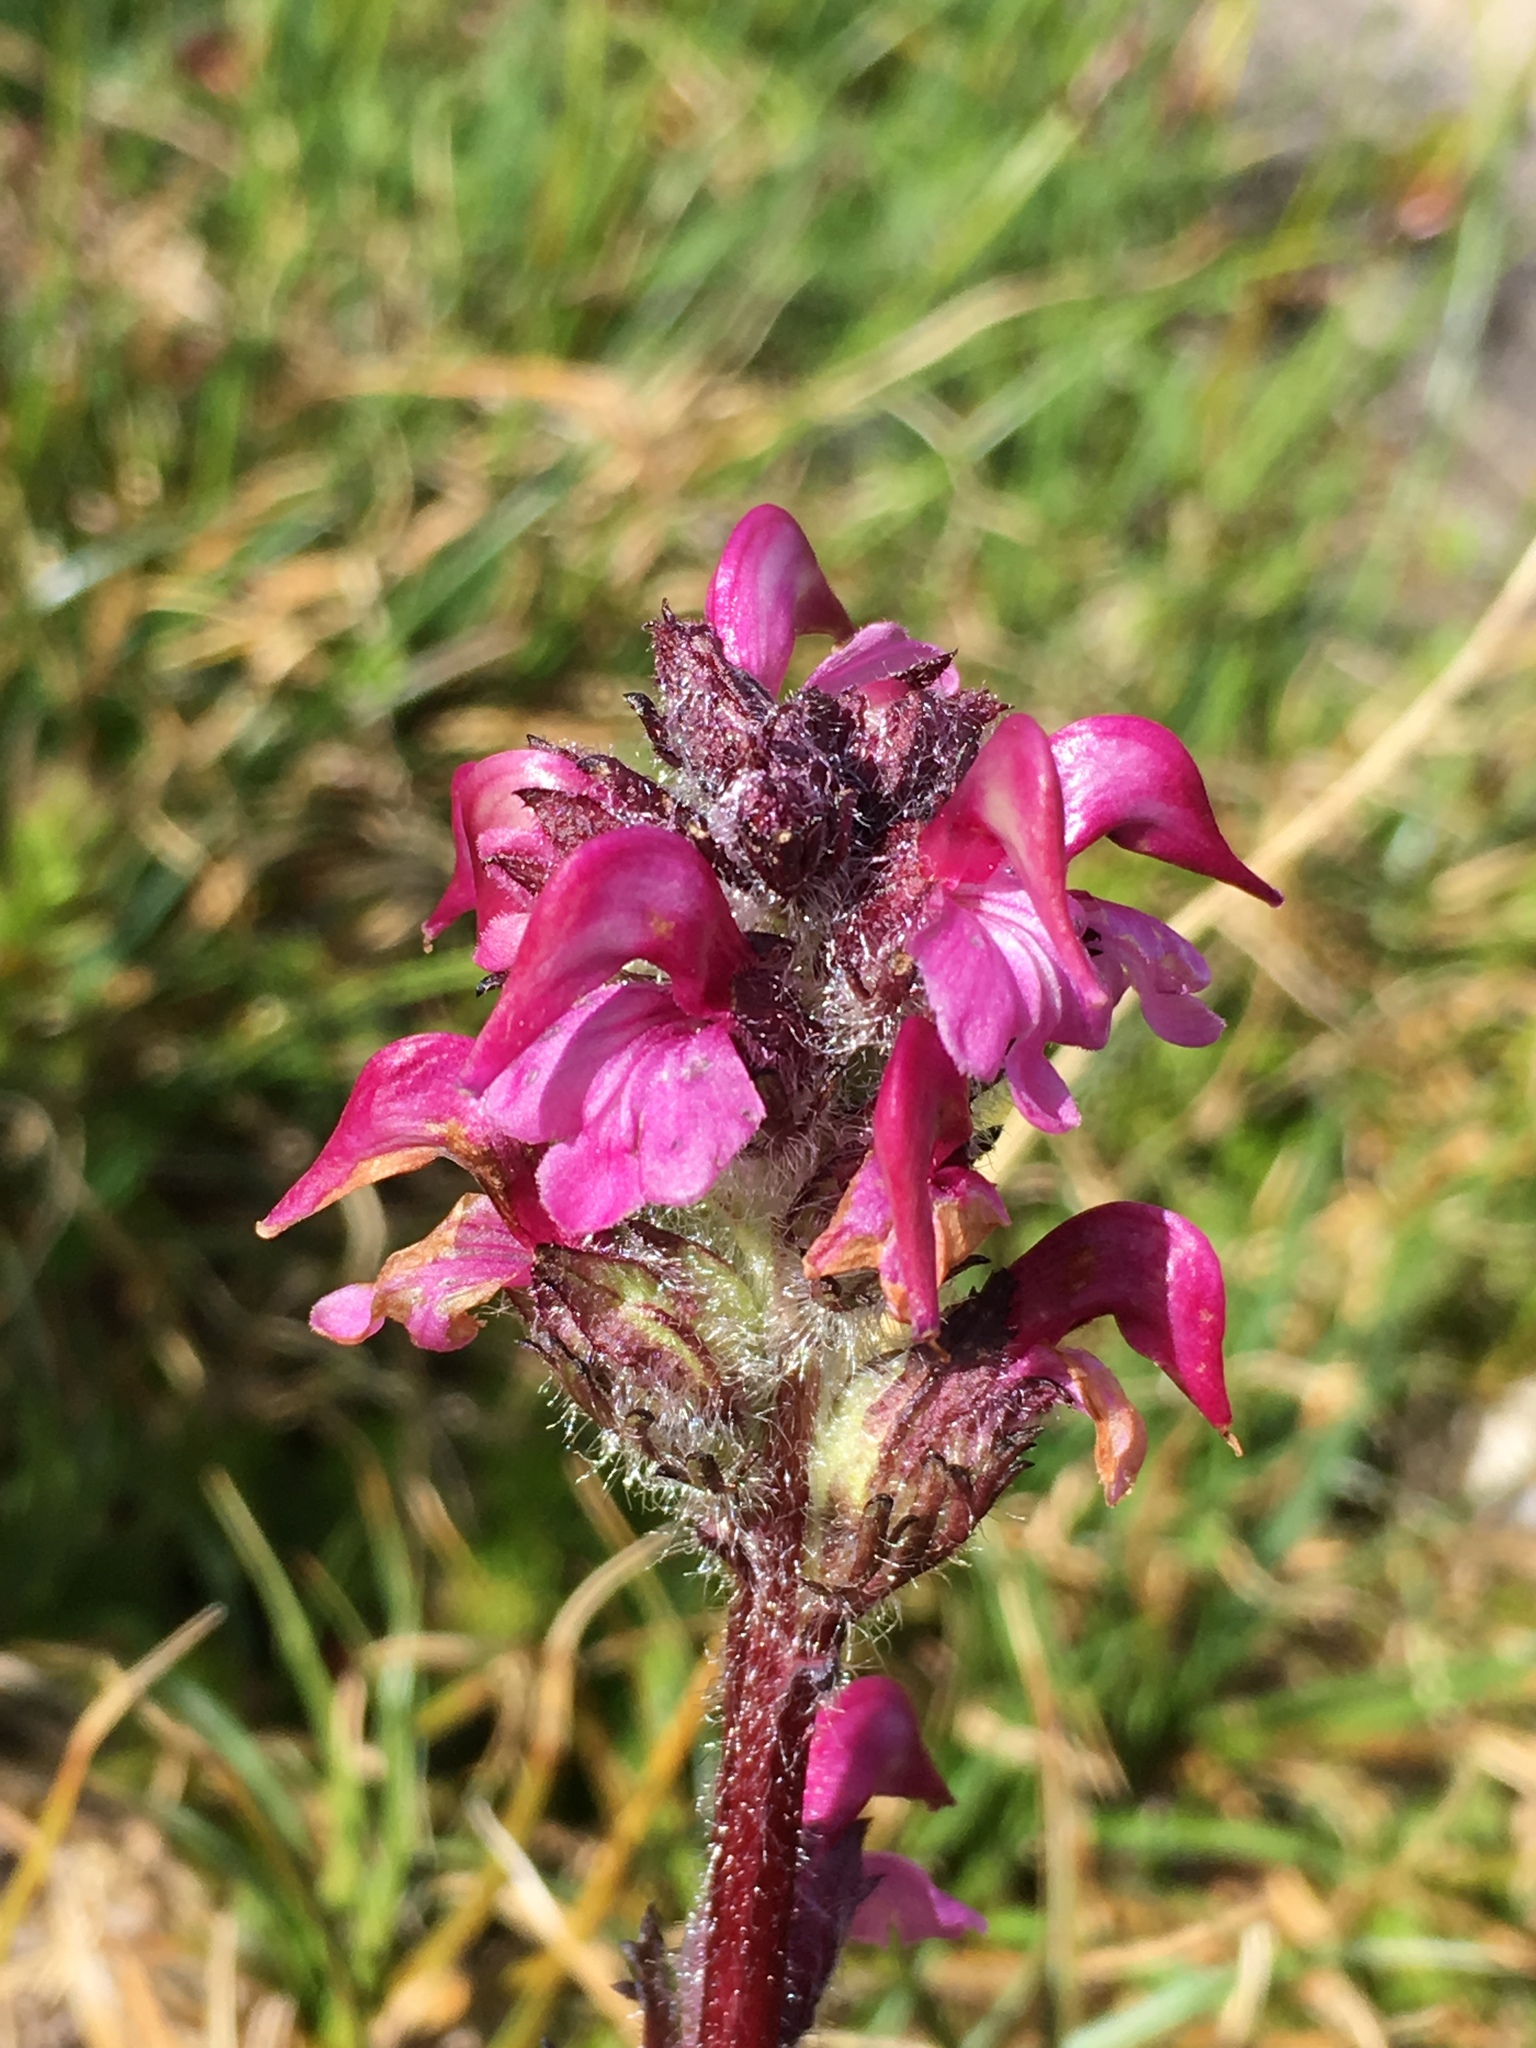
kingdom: Plantae
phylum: Tracheophyta
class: Magnoliopsida
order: Lamiales
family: Orobanchaceae
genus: Pedicularis
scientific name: Pedicularis ornithorhynchos
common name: Bird's-beak lousewort
